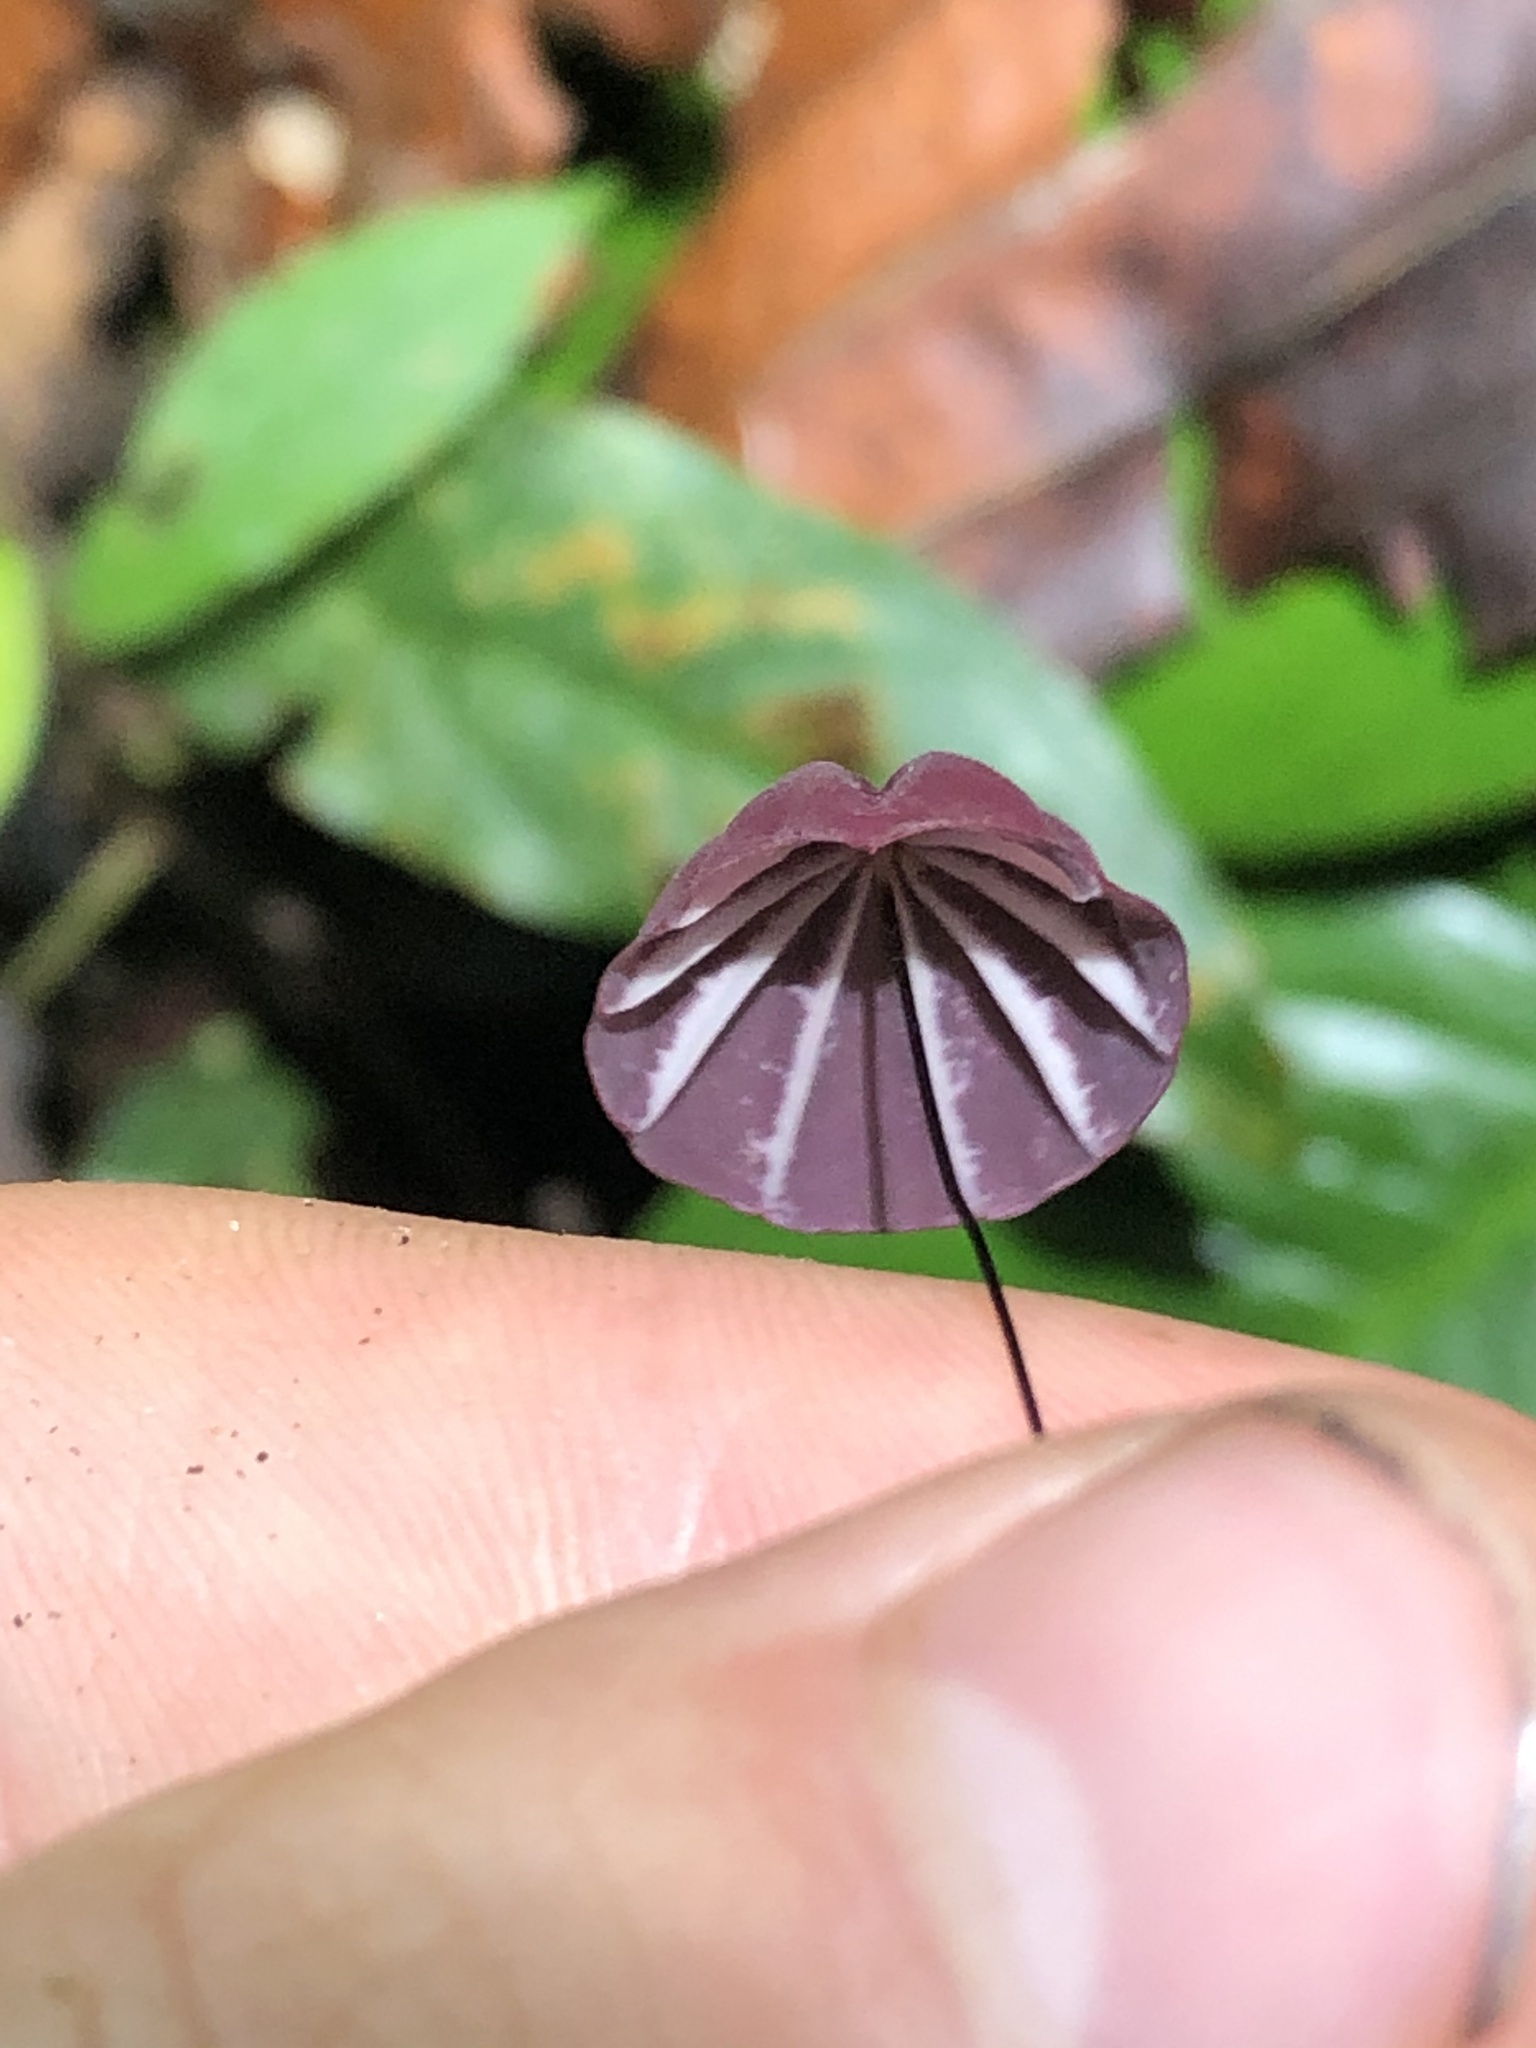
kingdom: Fungi
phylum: Basidiomycota
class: Agaricomycetes
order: Agaricales
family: Marasmiaceae
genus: Marasmius
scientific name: Marasmius haematocephalus
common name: Purple pinwheel
